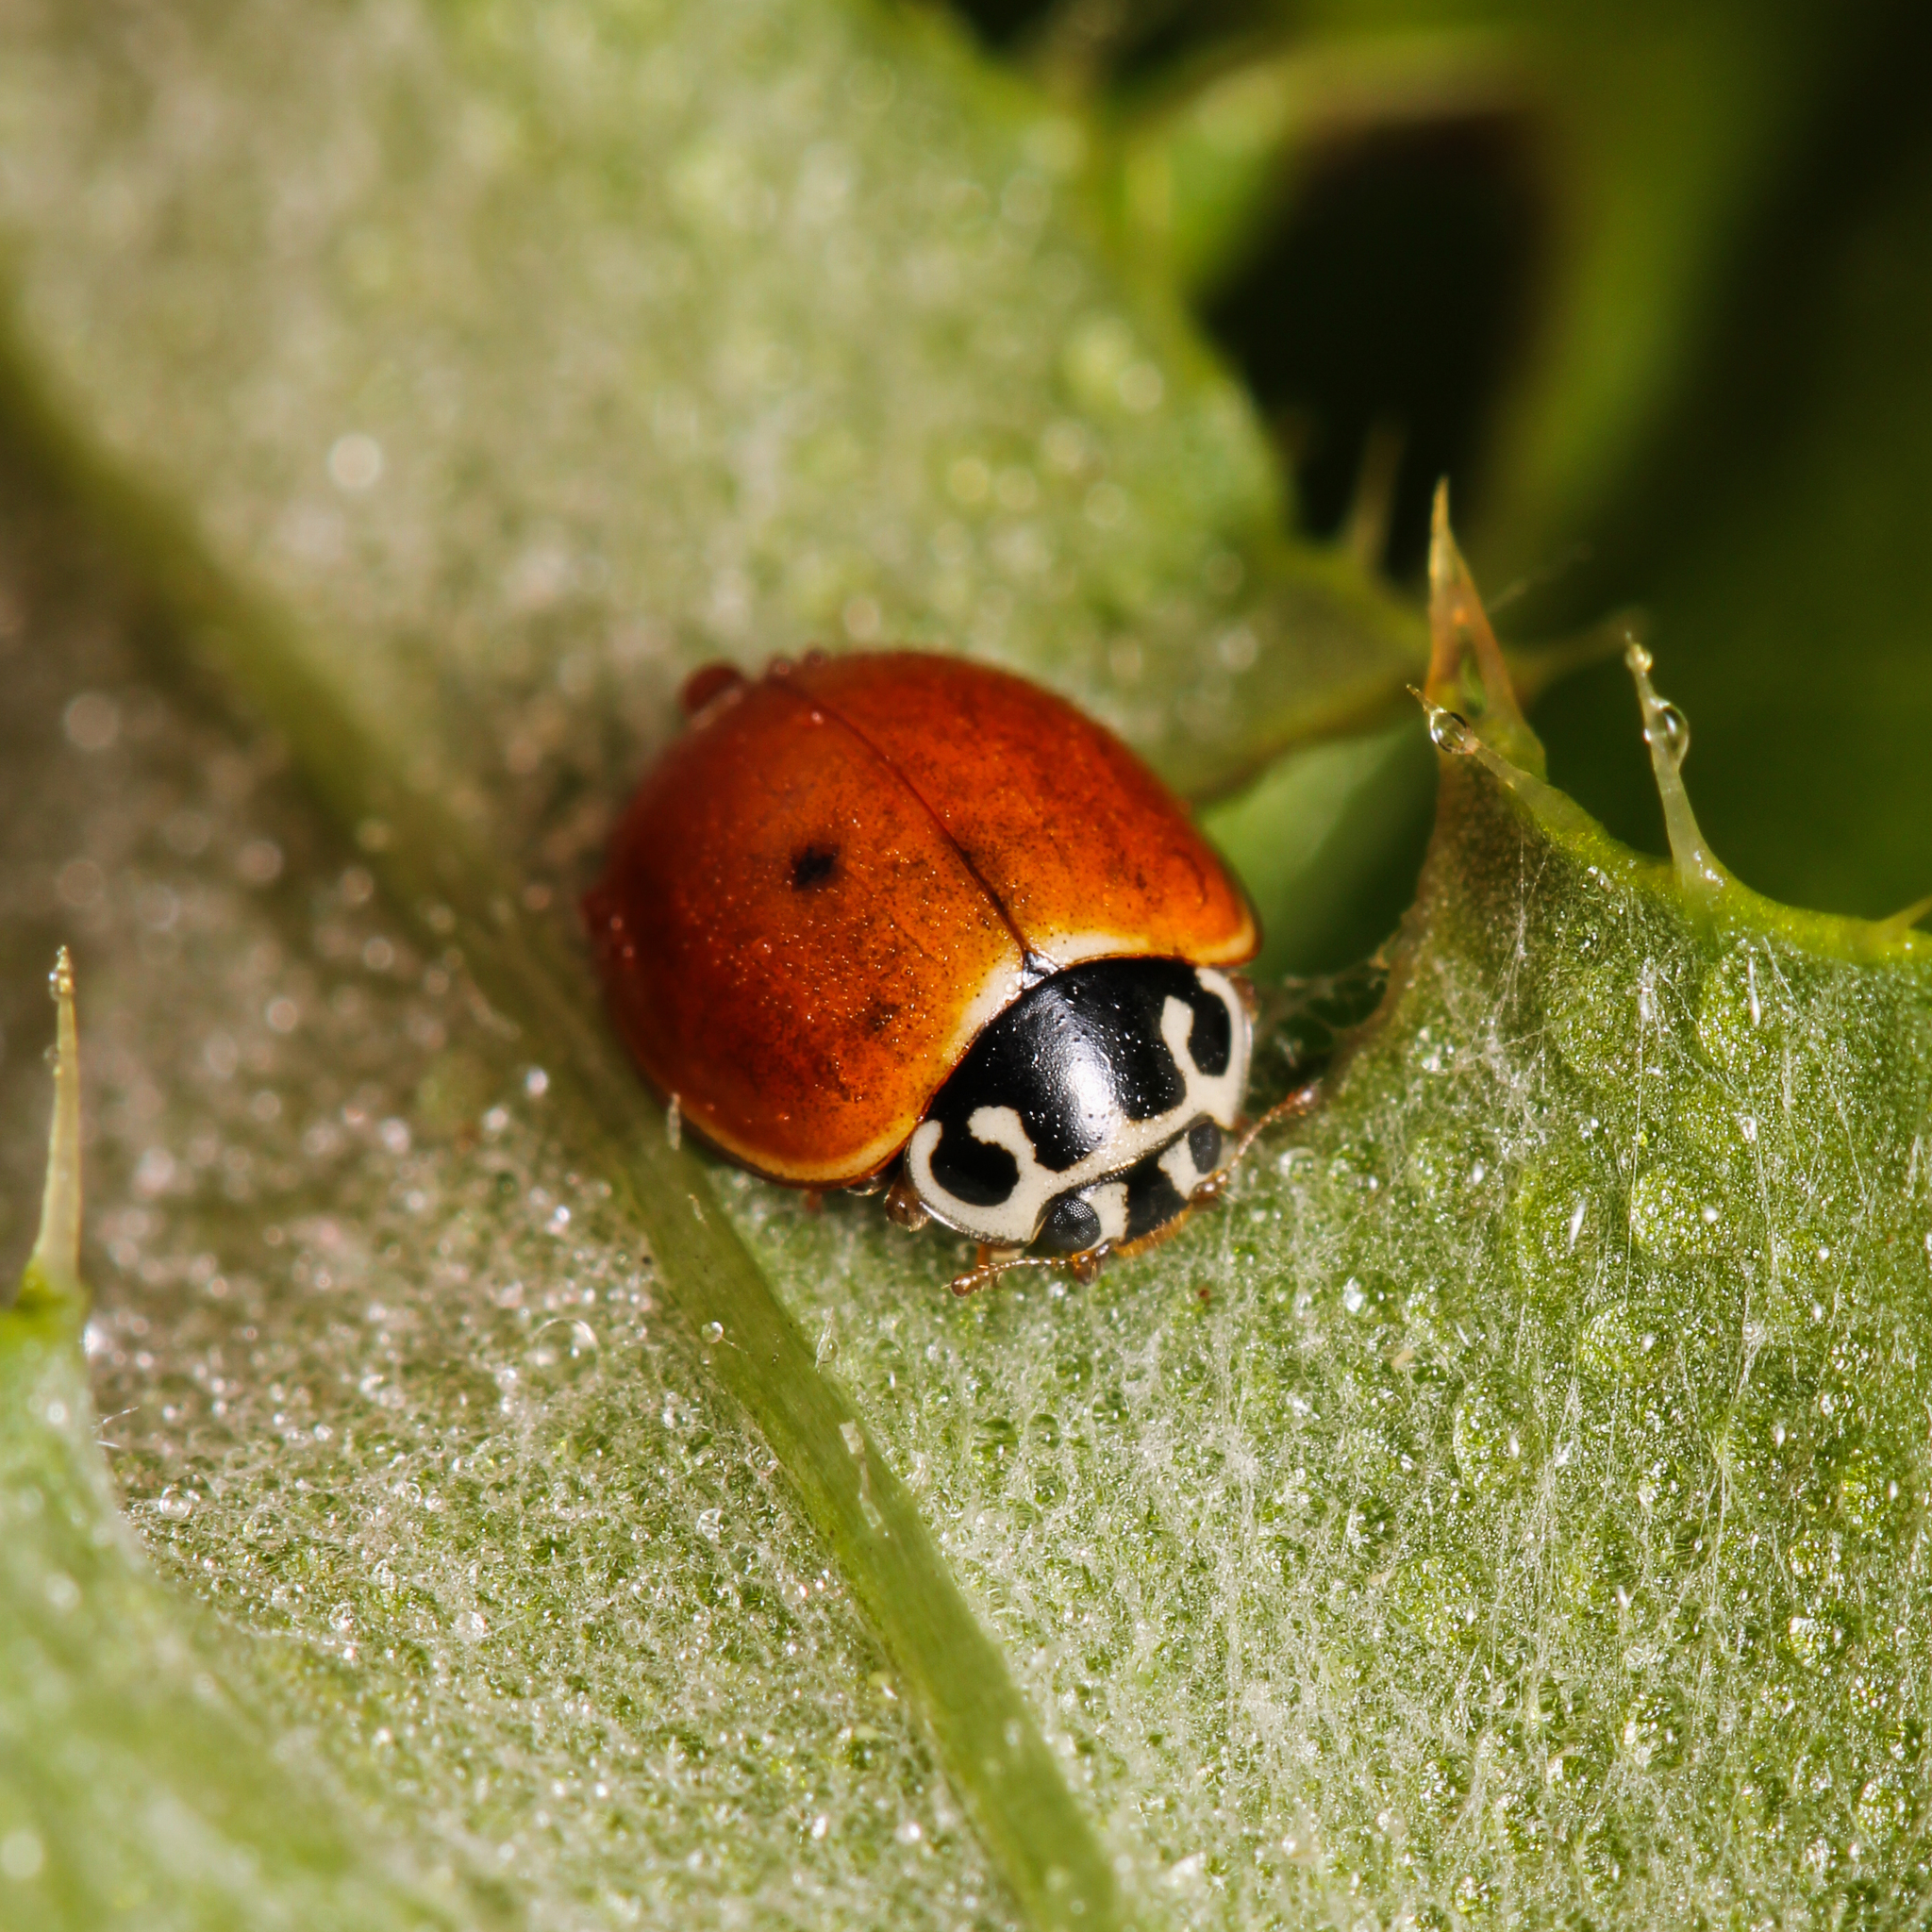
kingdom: Animalia
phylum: Arthropoda
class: Insecta
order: Coleoptera
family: Coccinellidae
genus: Cycloneda
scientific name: Cycloneda munda
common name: Polished lady beetle
